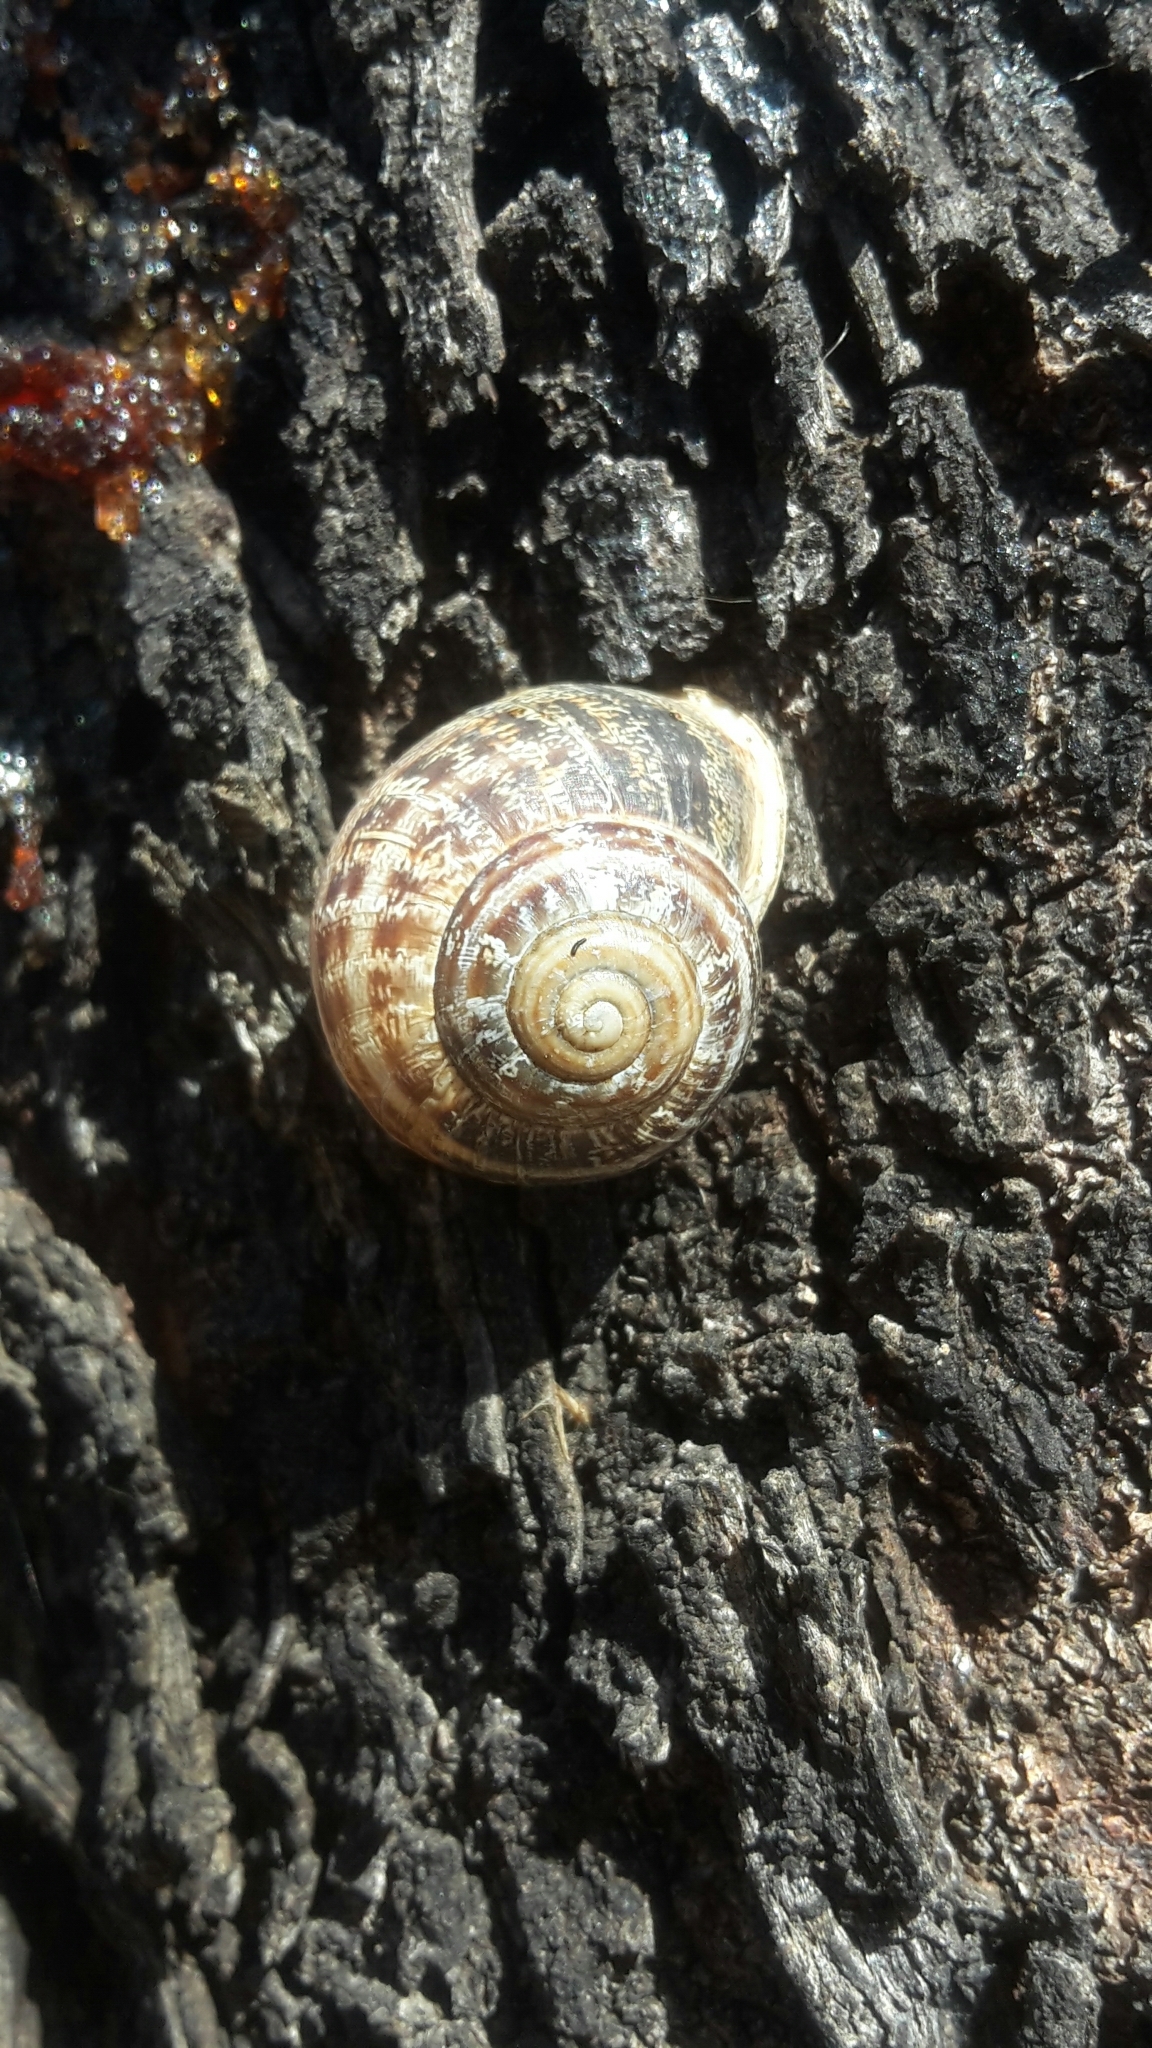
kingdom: Animalia
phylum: Mollusca
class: Gastropoda
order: Stylommatophora
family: Helicidae
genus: Eobania
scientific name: Eobania vermiculata
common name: Chocolateband snail
